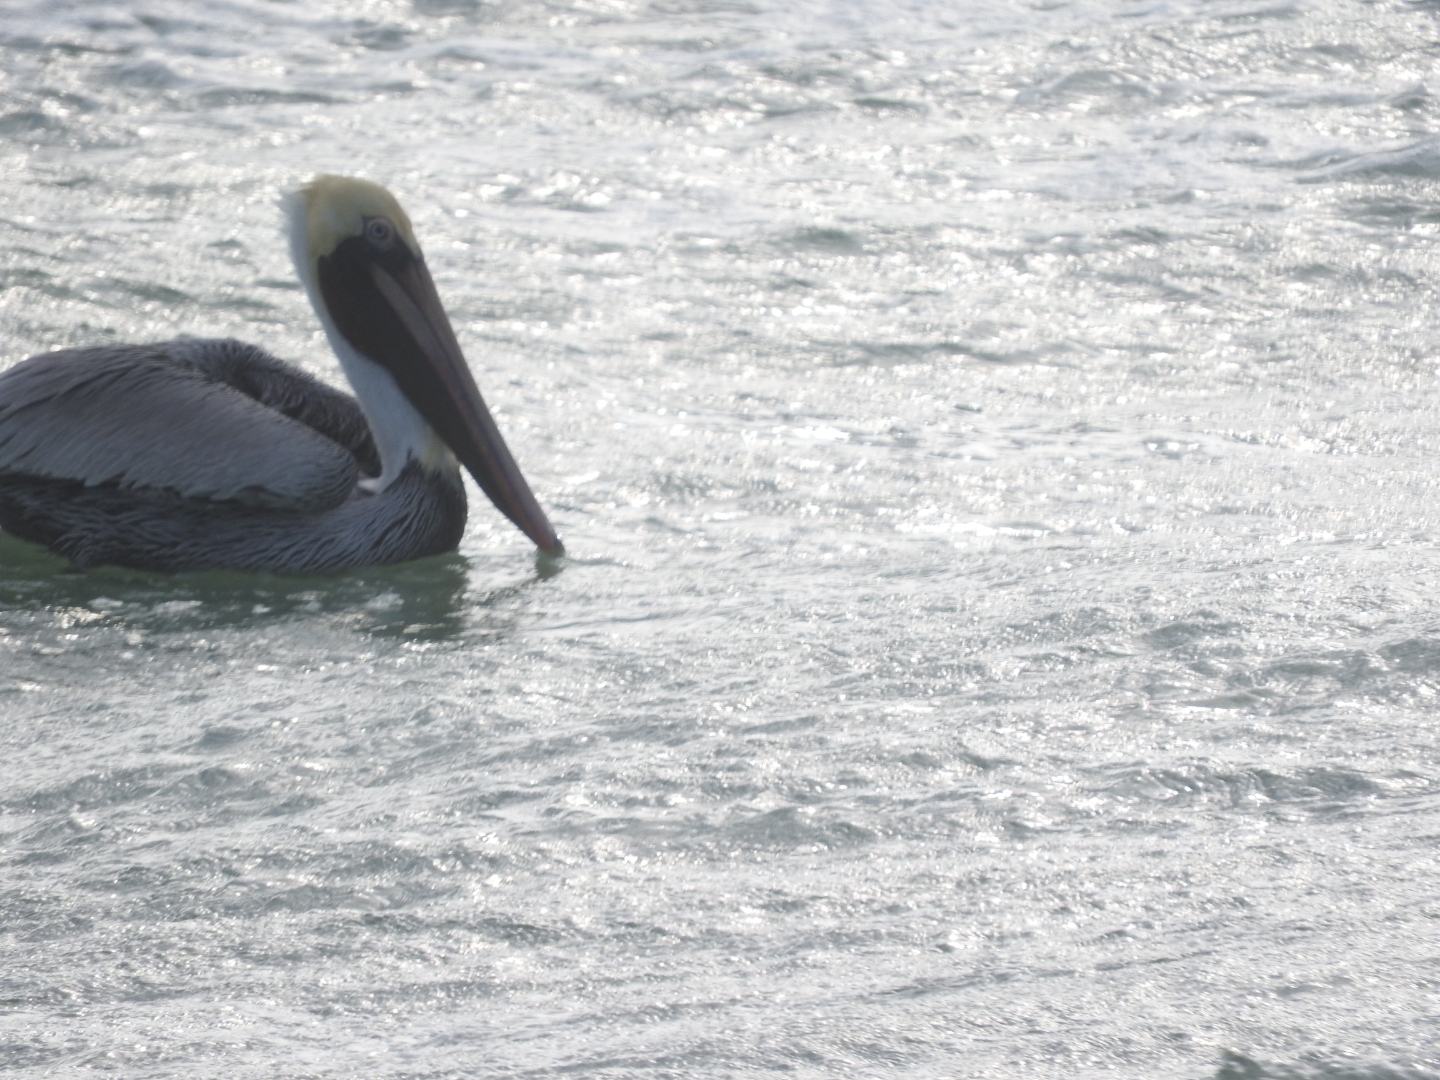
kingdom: Animalia
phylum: Chordata
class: Aves
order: Pelecaniformes
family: Pelecanidae
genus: Pelecanus
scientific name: Pelecanus occidentalis
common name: Brown pelican
